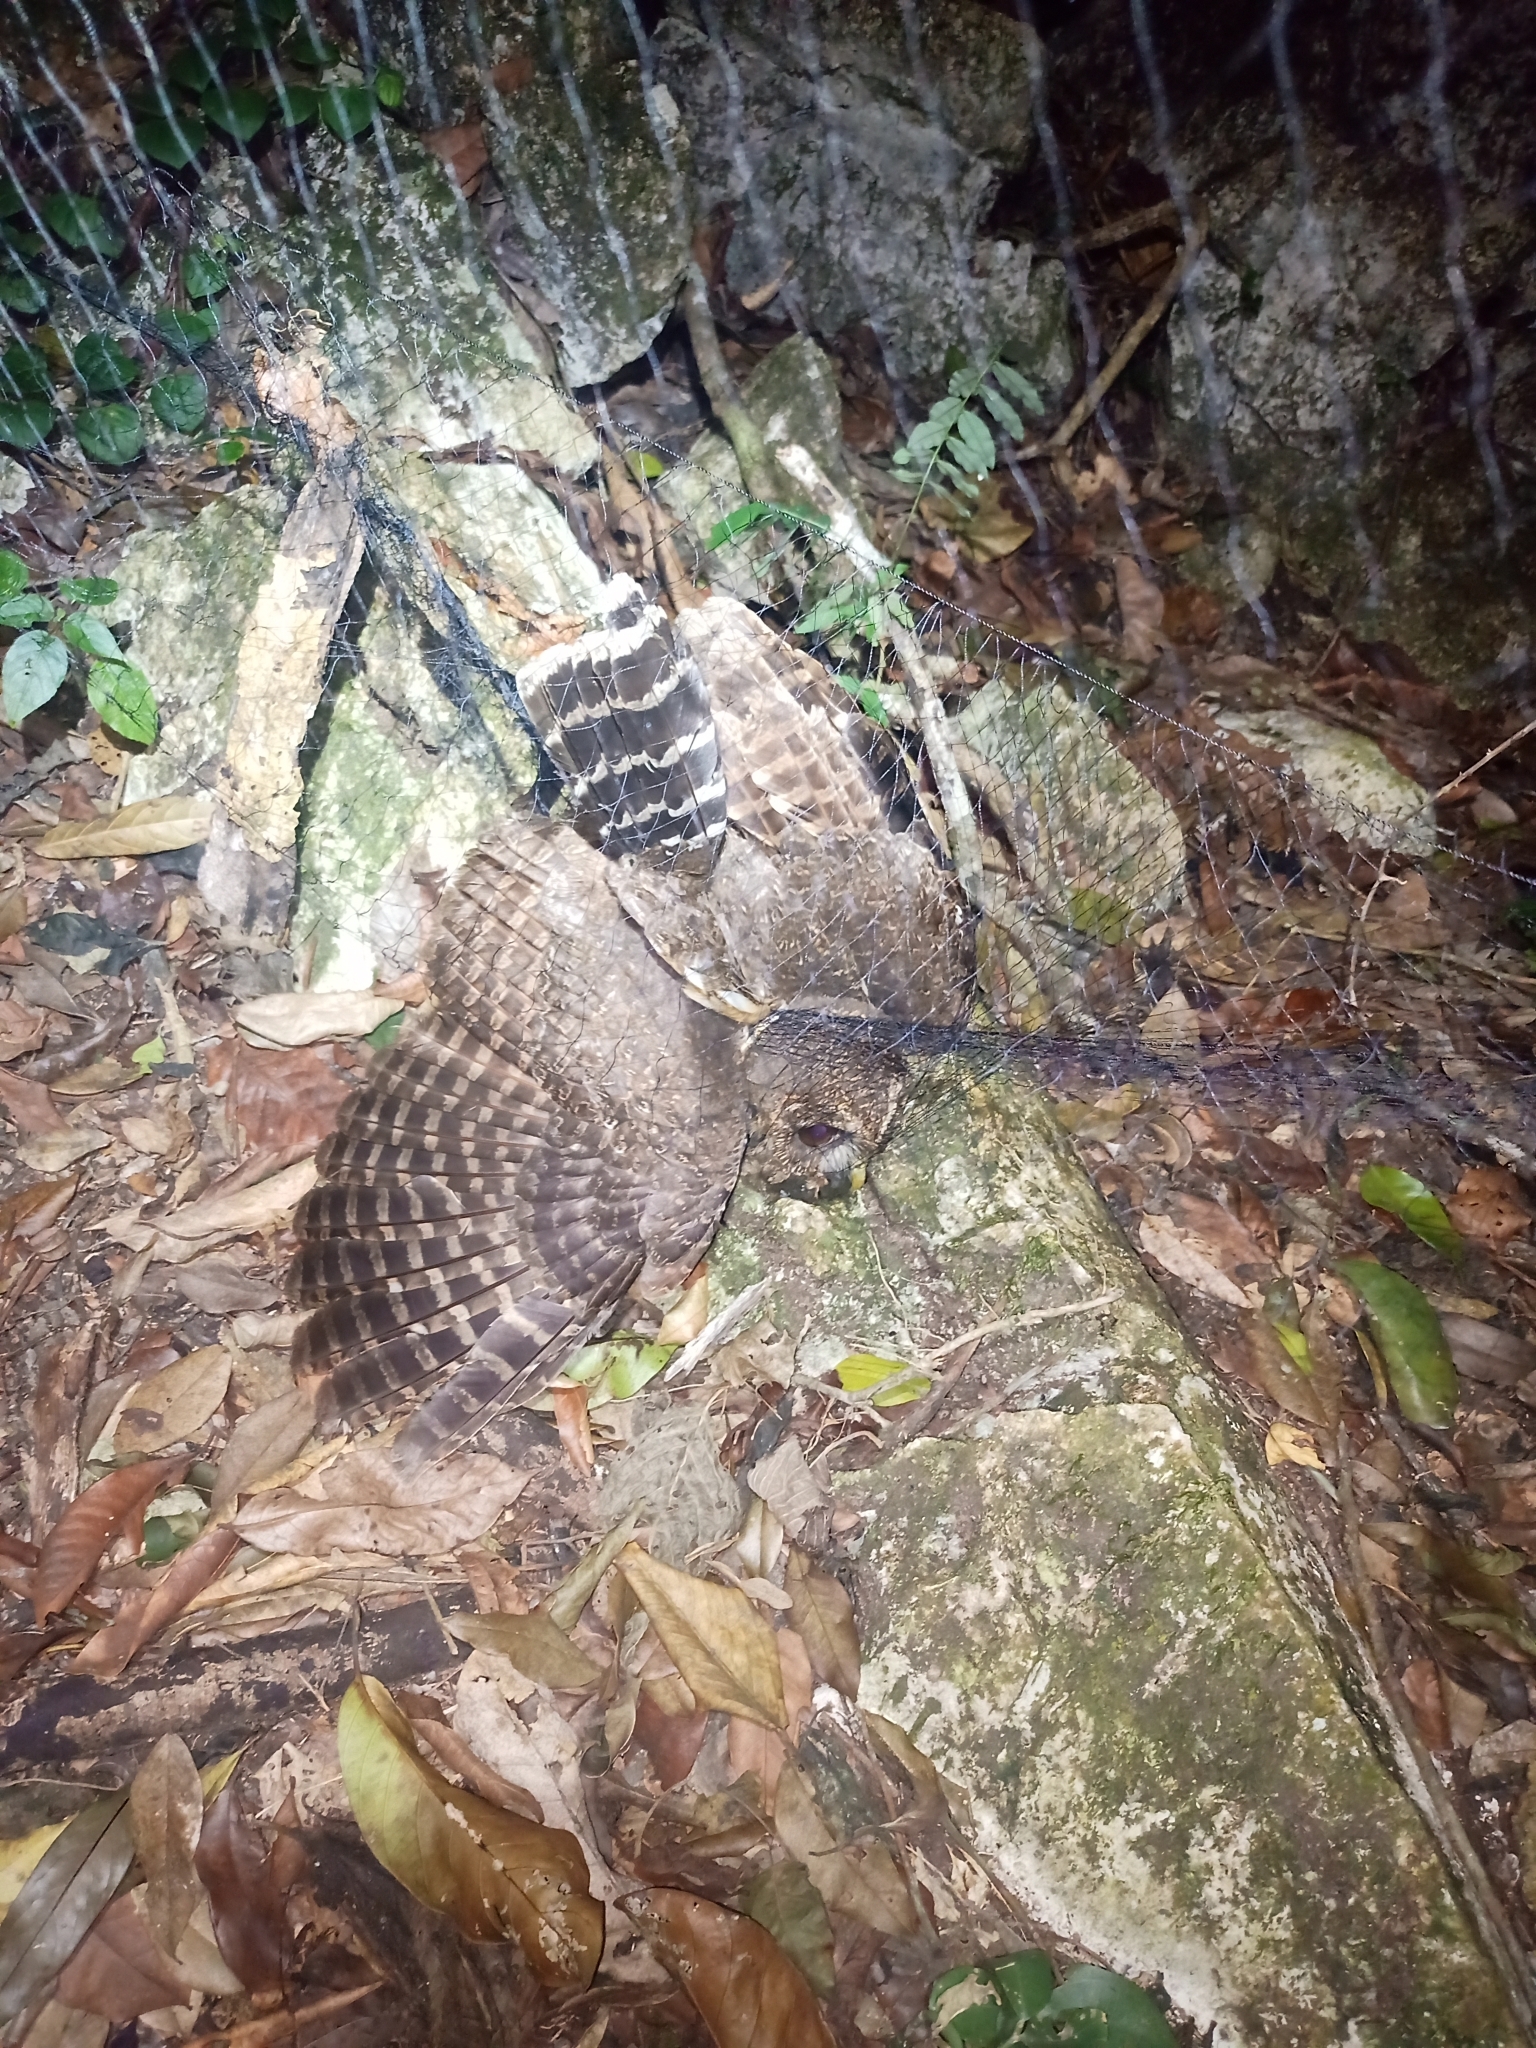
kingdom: Animalia
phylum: Chordata
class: Aves
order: Strigiformes
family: Strigidae
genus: Strix
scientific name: Strix virgata
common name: Mottled owl
